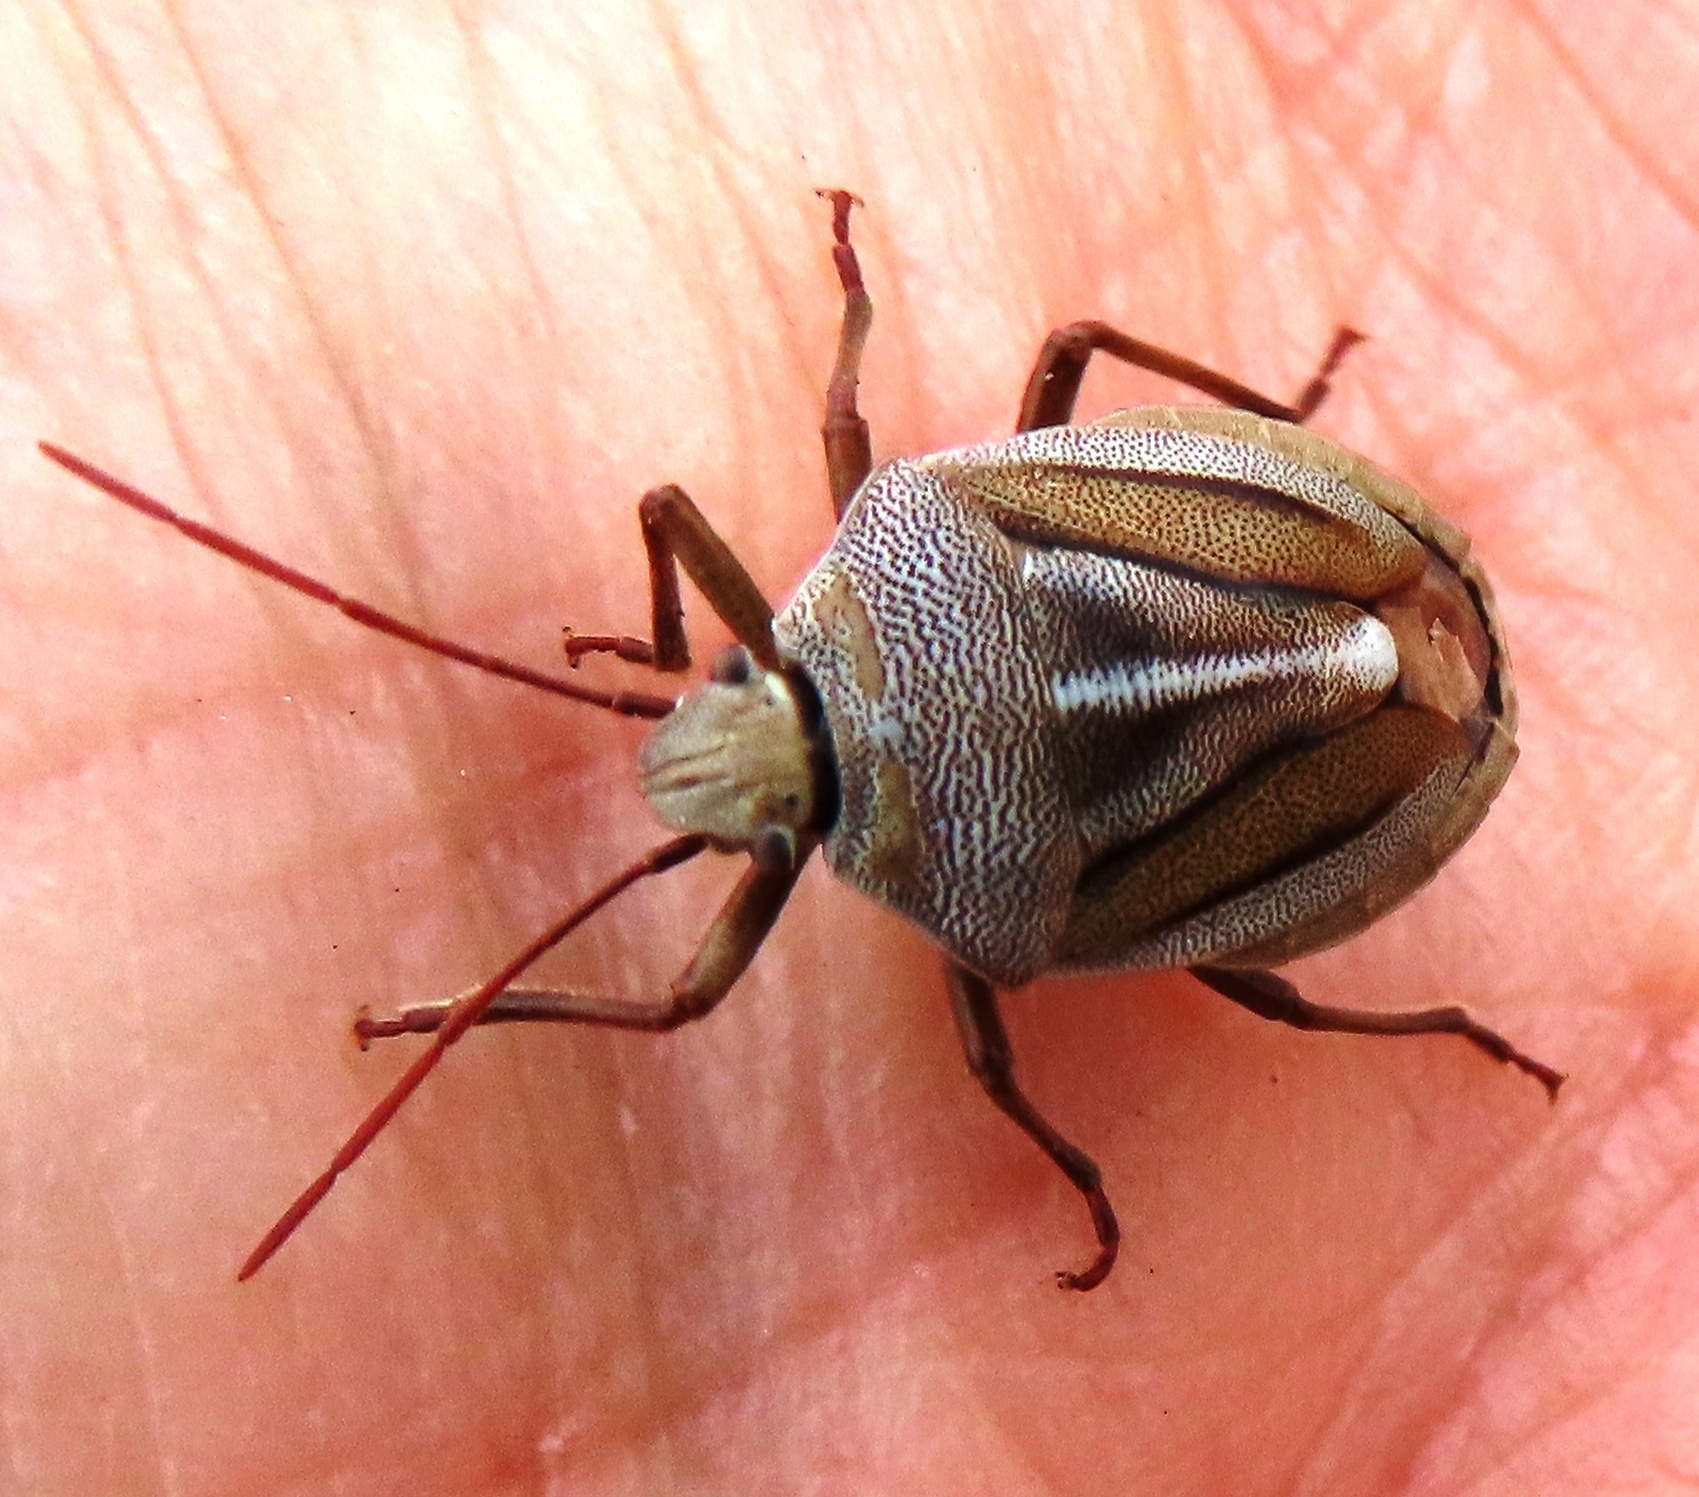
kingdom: Animalia
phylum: Arthropoda
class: Insecta
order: Hemiptera
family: Pentatomidae
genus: Theloris
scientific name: Theloris costata
